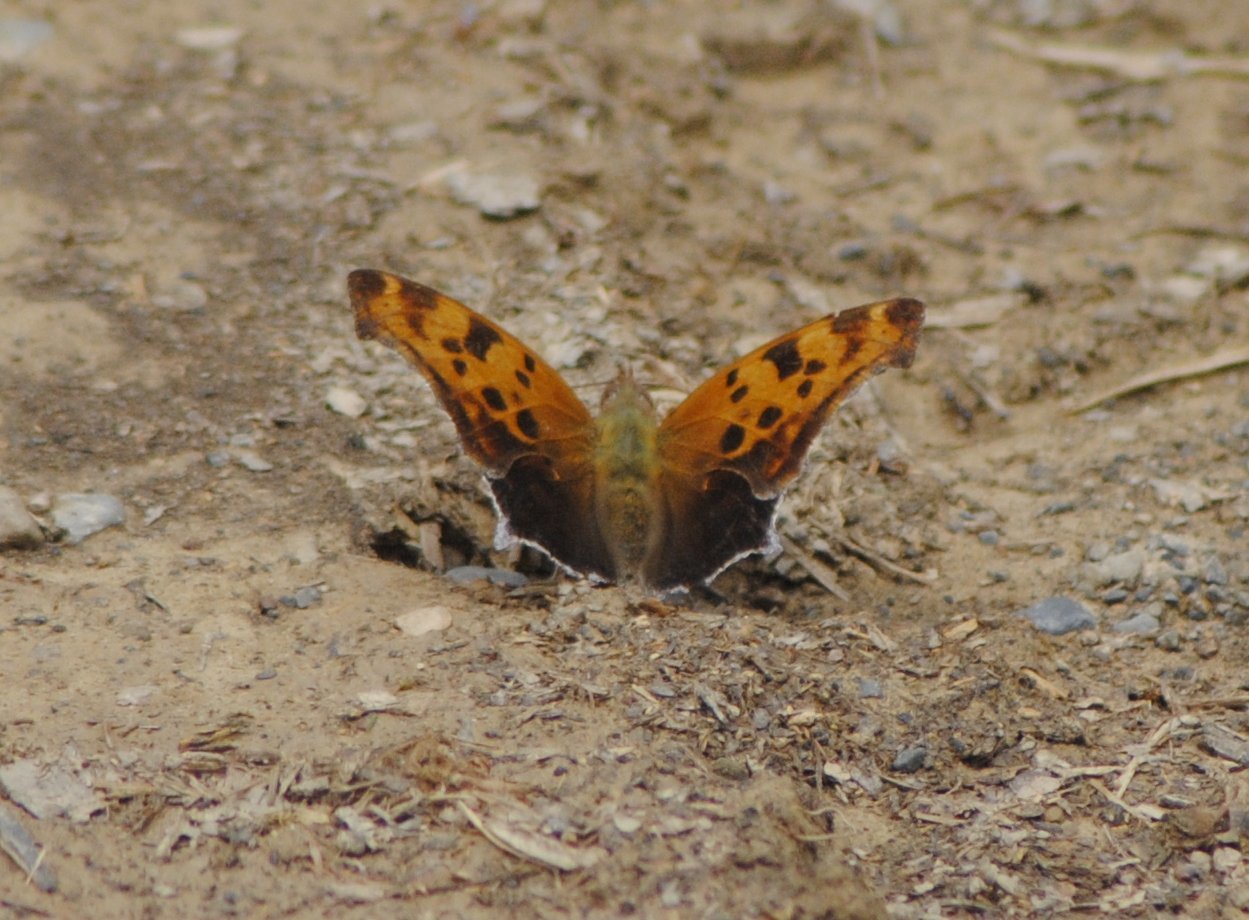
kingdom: Animalia
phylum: Arthropoda
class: Insecta
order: Lepidoptera
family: Nymphalidae
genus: Polygonia
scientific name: Polygonia interrogationis
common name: Question mark
